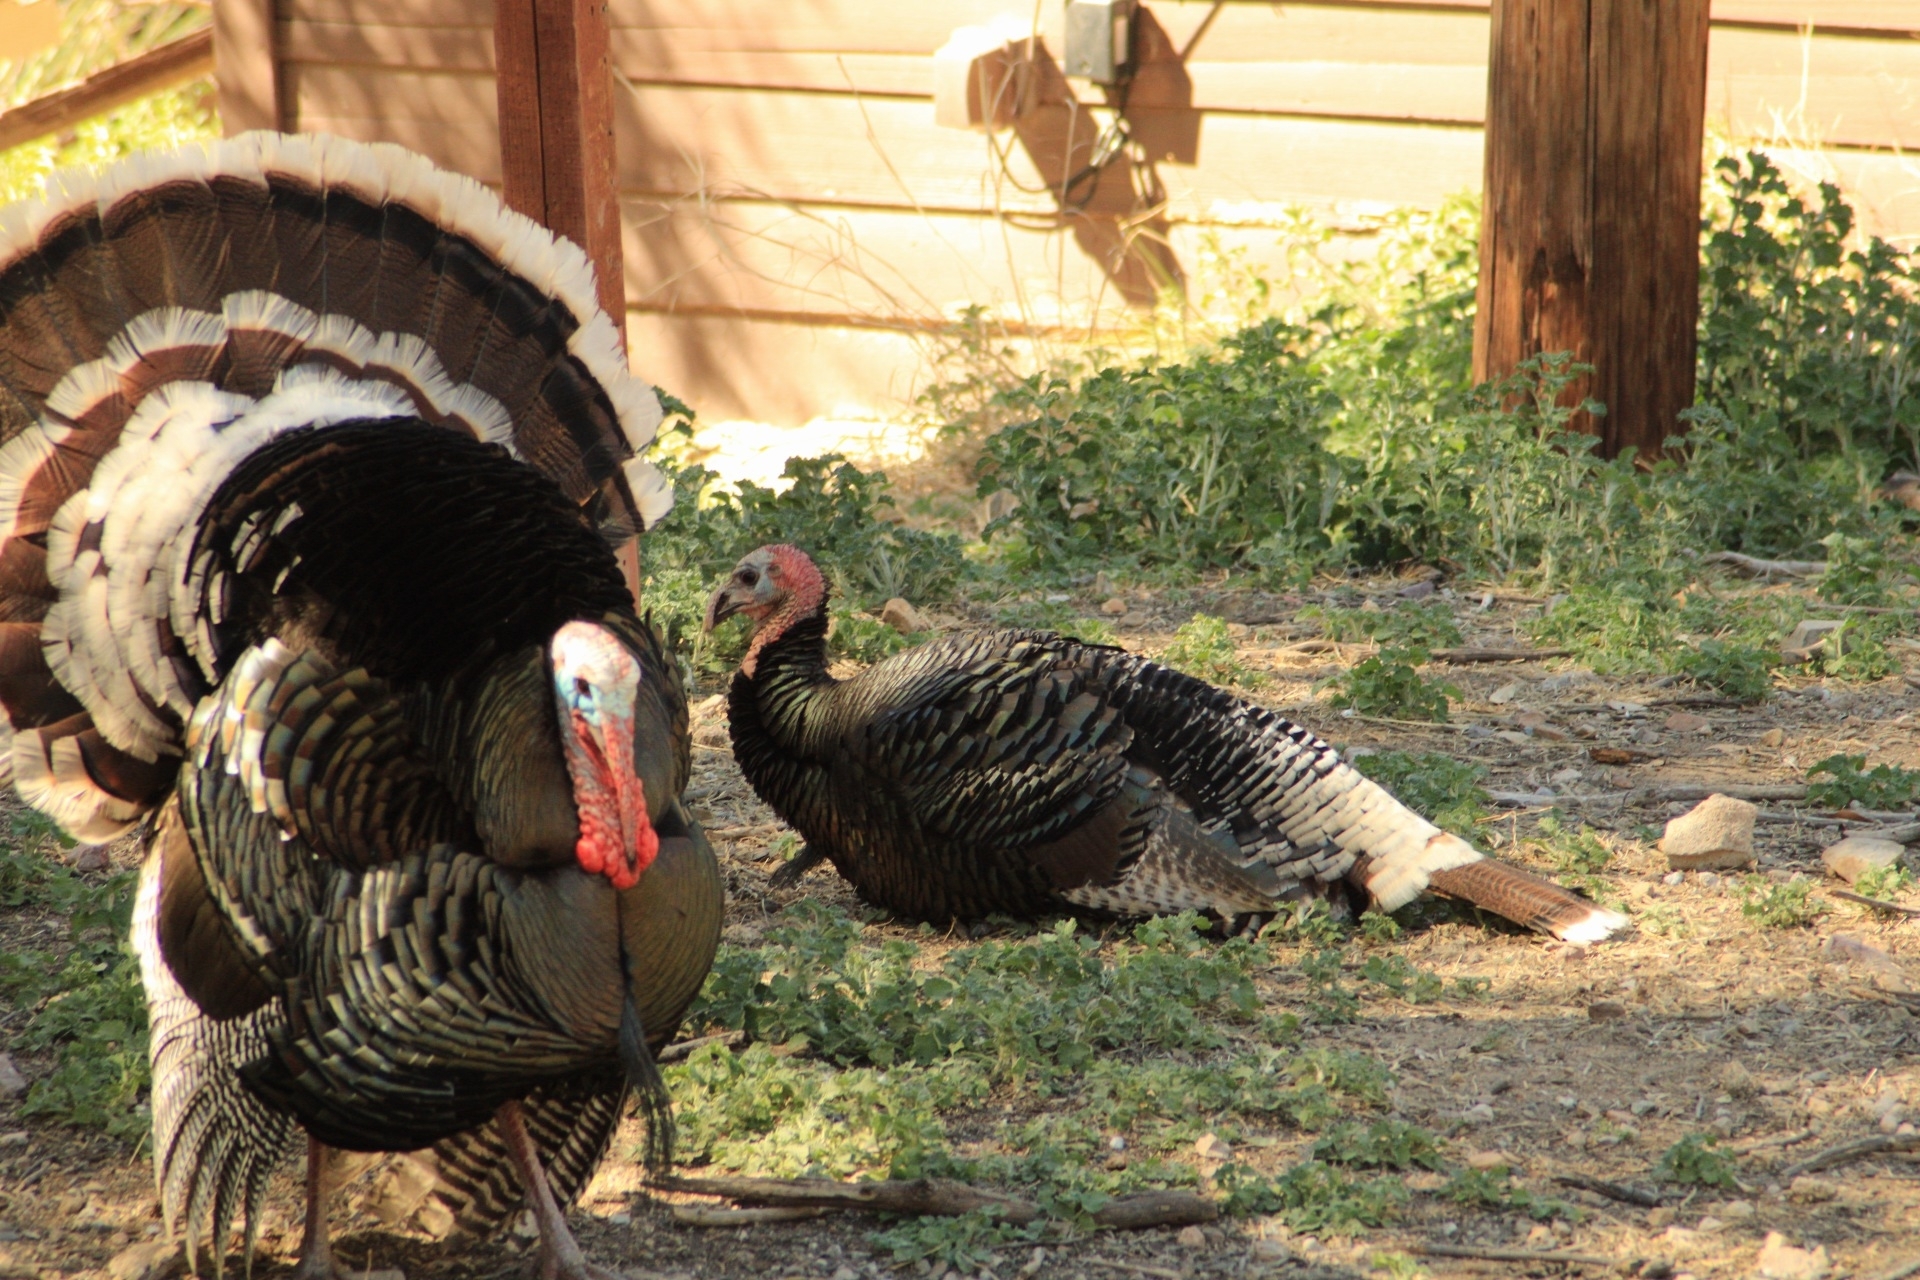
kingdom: Animalia
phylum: Chordata
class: Aves
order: Galliformes
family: Phasianidae
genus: Meleagris
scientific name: Meleagris gallopavo
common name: Wild turkey
